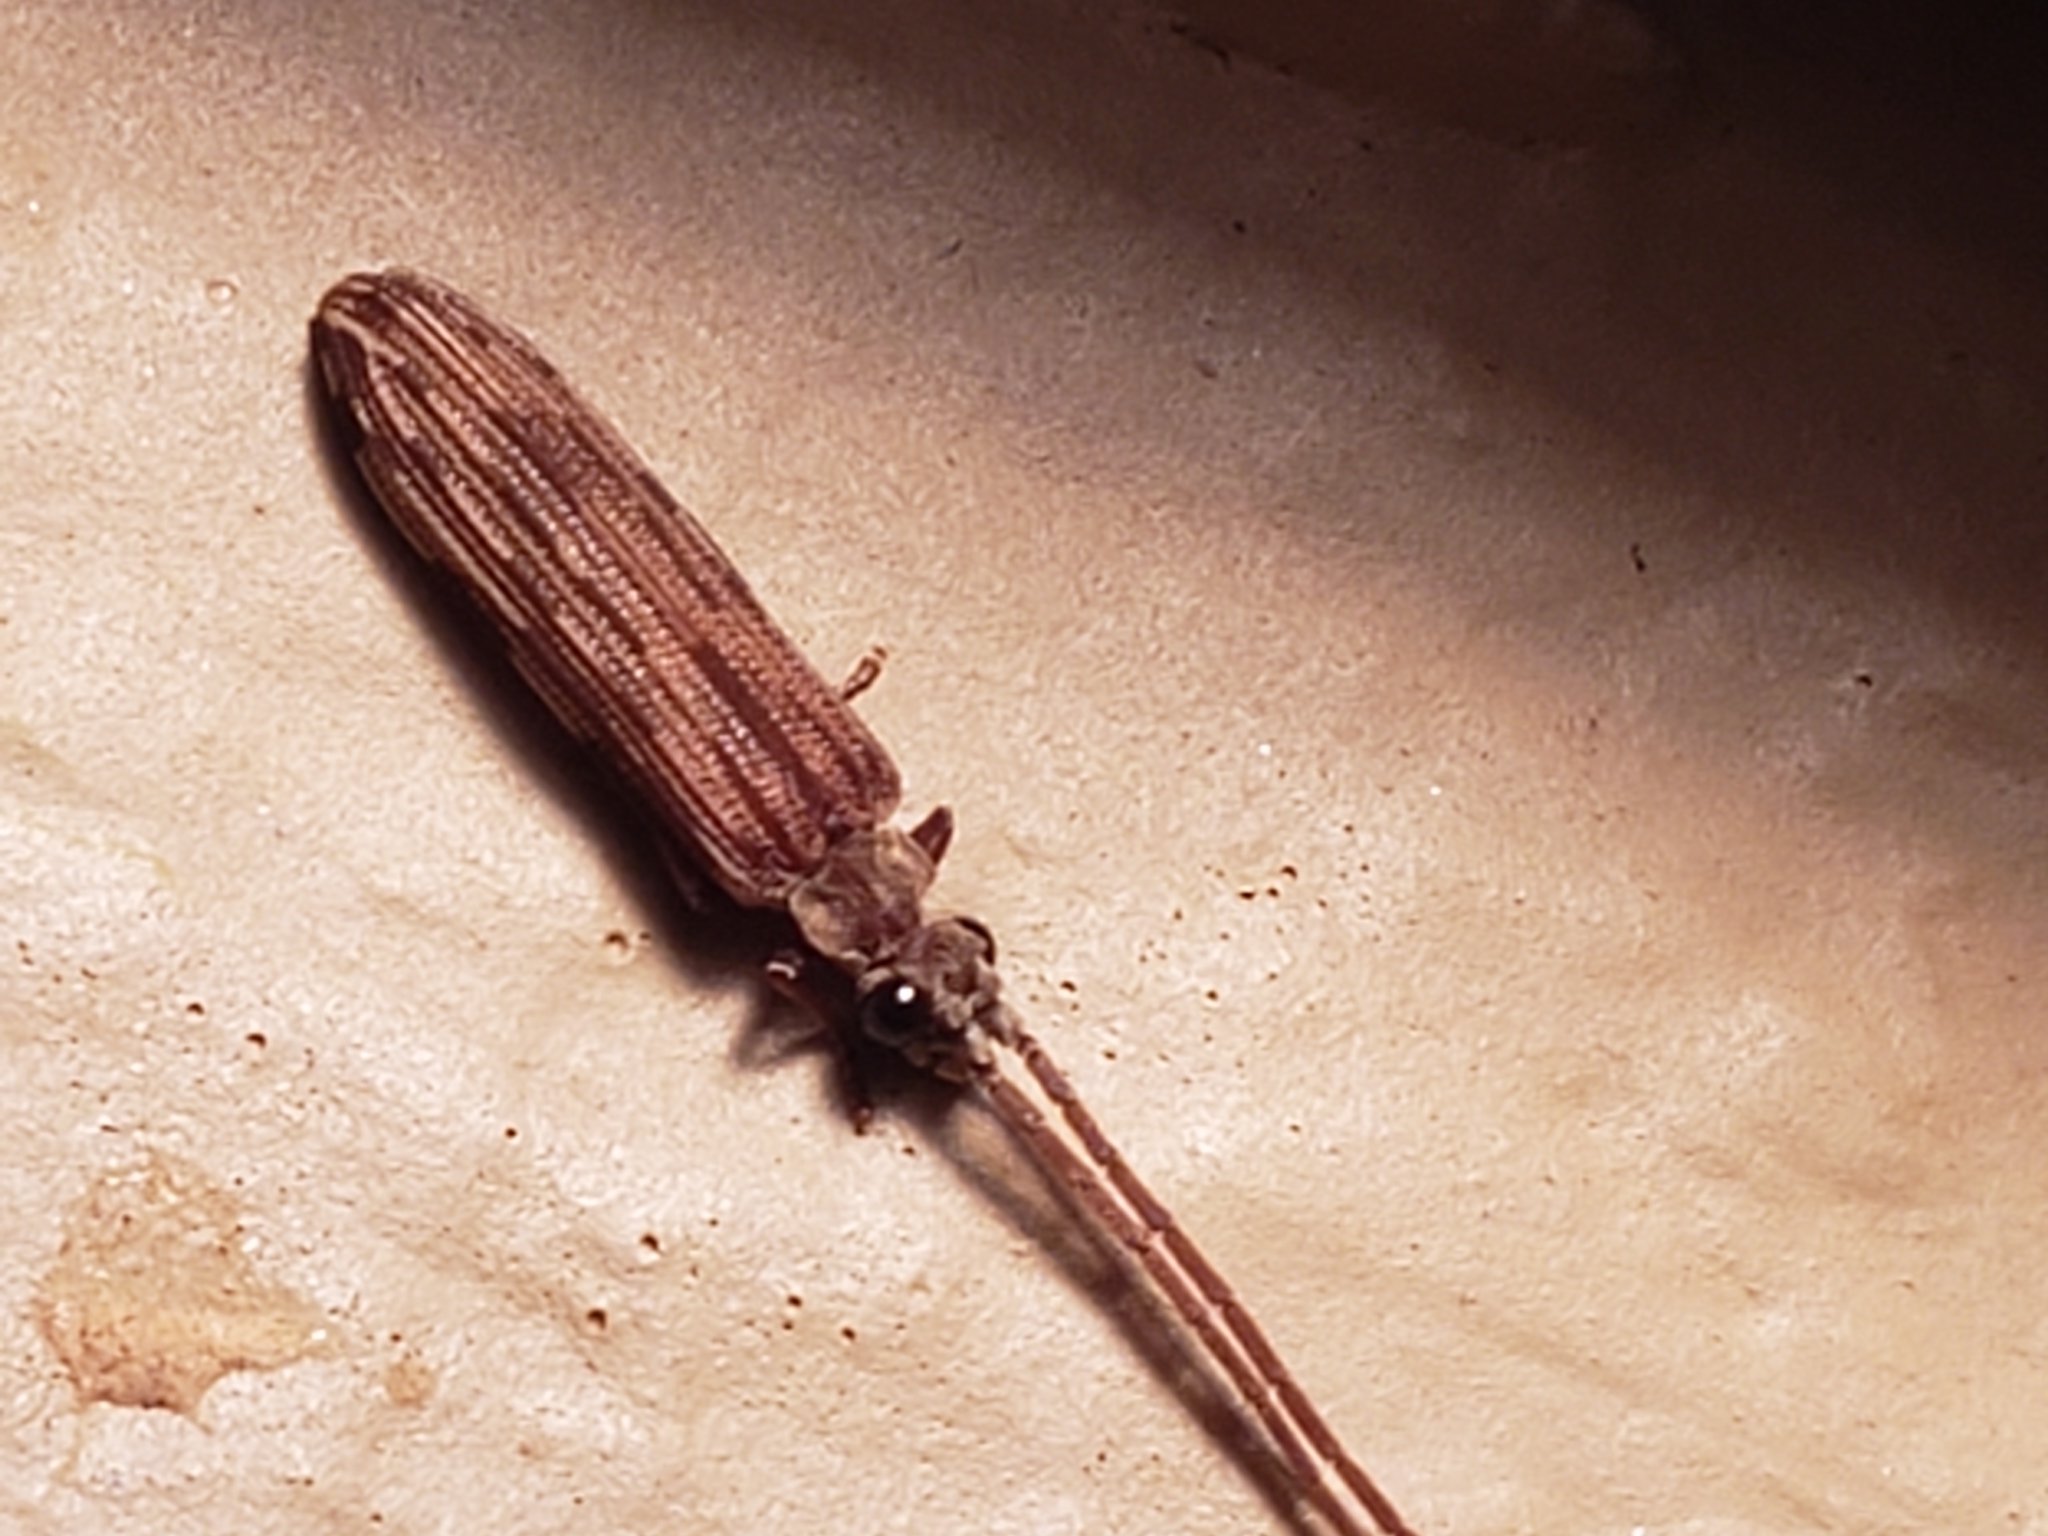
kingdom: Animalia
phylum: Arthropoda
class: Insecta
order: Coleoptera
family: Cupedidae
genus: Tenomerga
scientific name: Tenomerga cinerea
